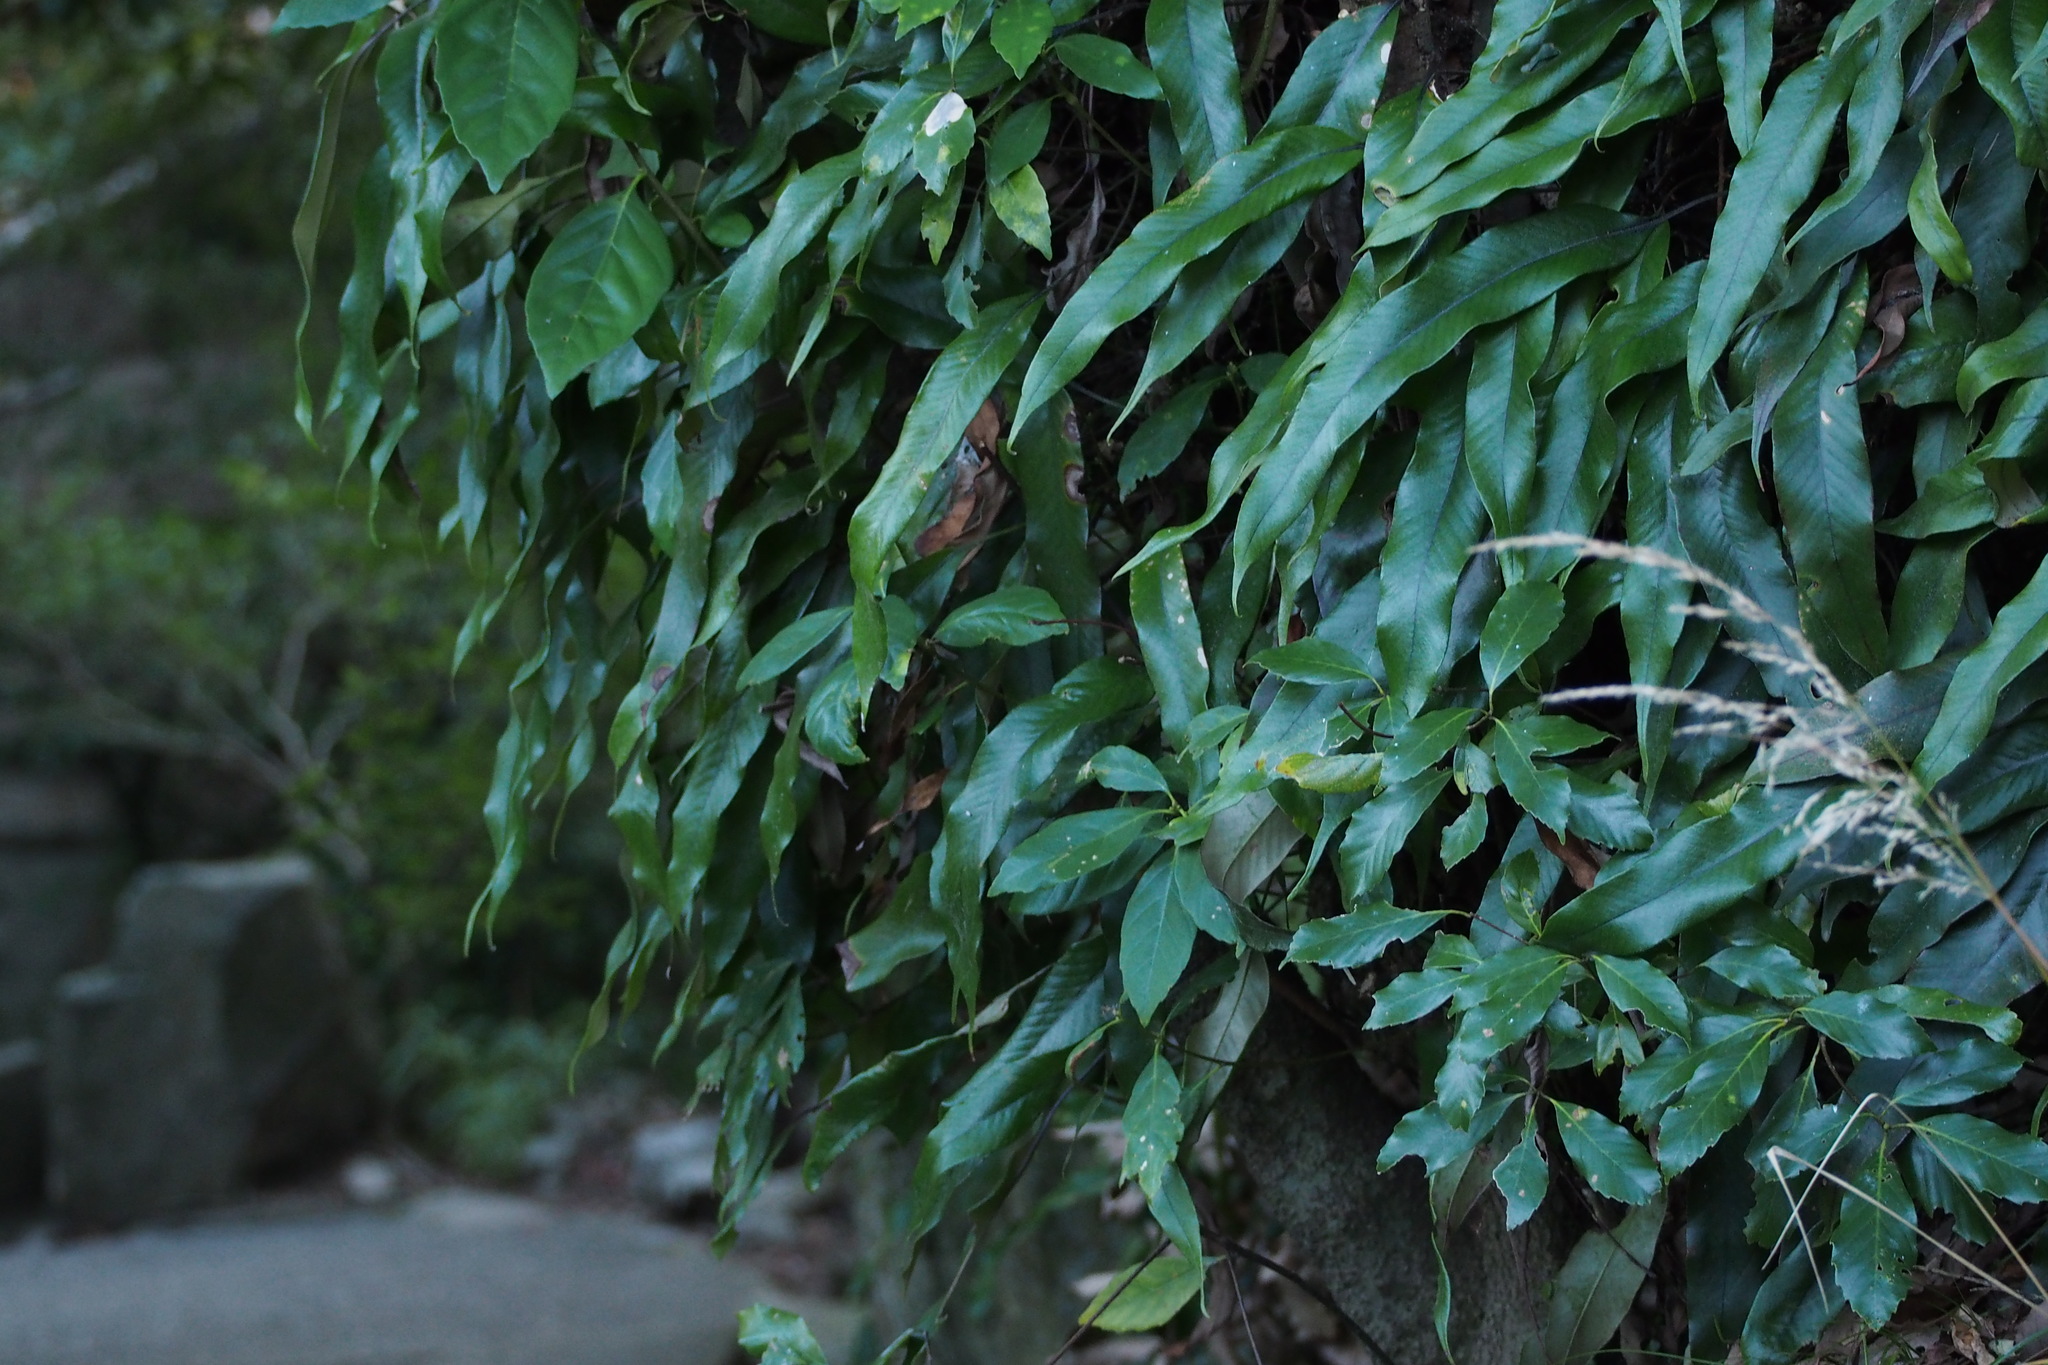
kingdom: Plantae
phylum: Tracheophyta
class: Polypodiopsida
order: Polypodiales
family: Polypodiaceae
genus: Pyrrosia
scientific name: Pyrrosia lingua
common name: Felt fern
